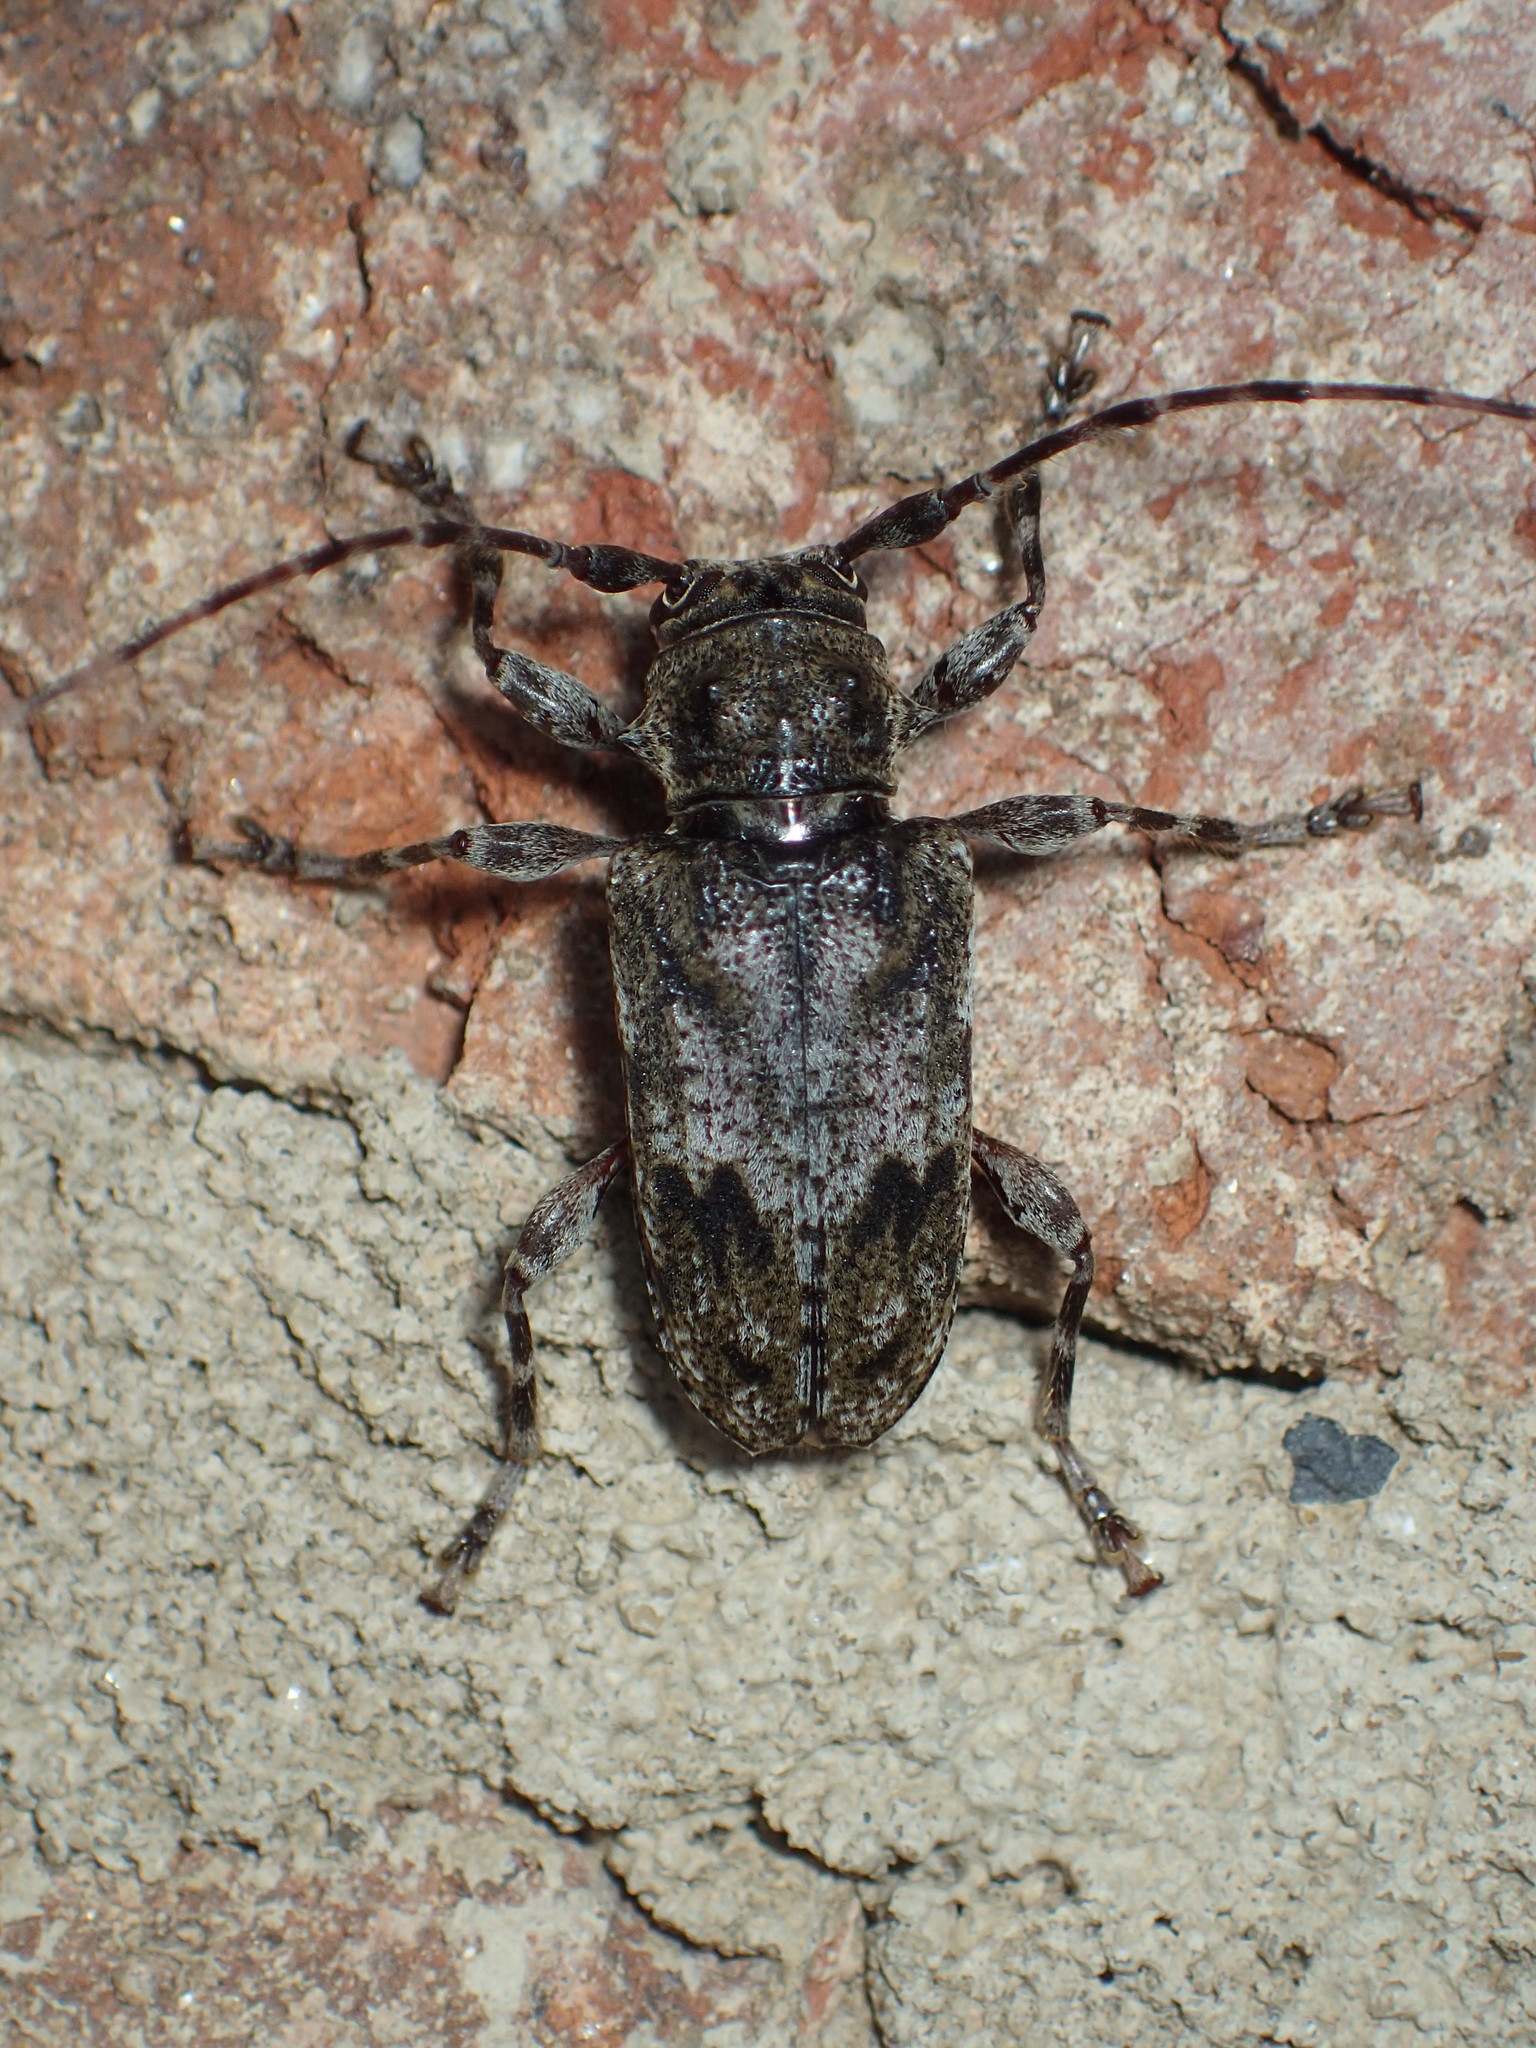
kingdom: Animalia
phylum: Arthropoda
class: Insecta
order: Coleoptera
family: Cerambycidae
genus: Aegomorphus
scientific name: Aegomorphus modestus
